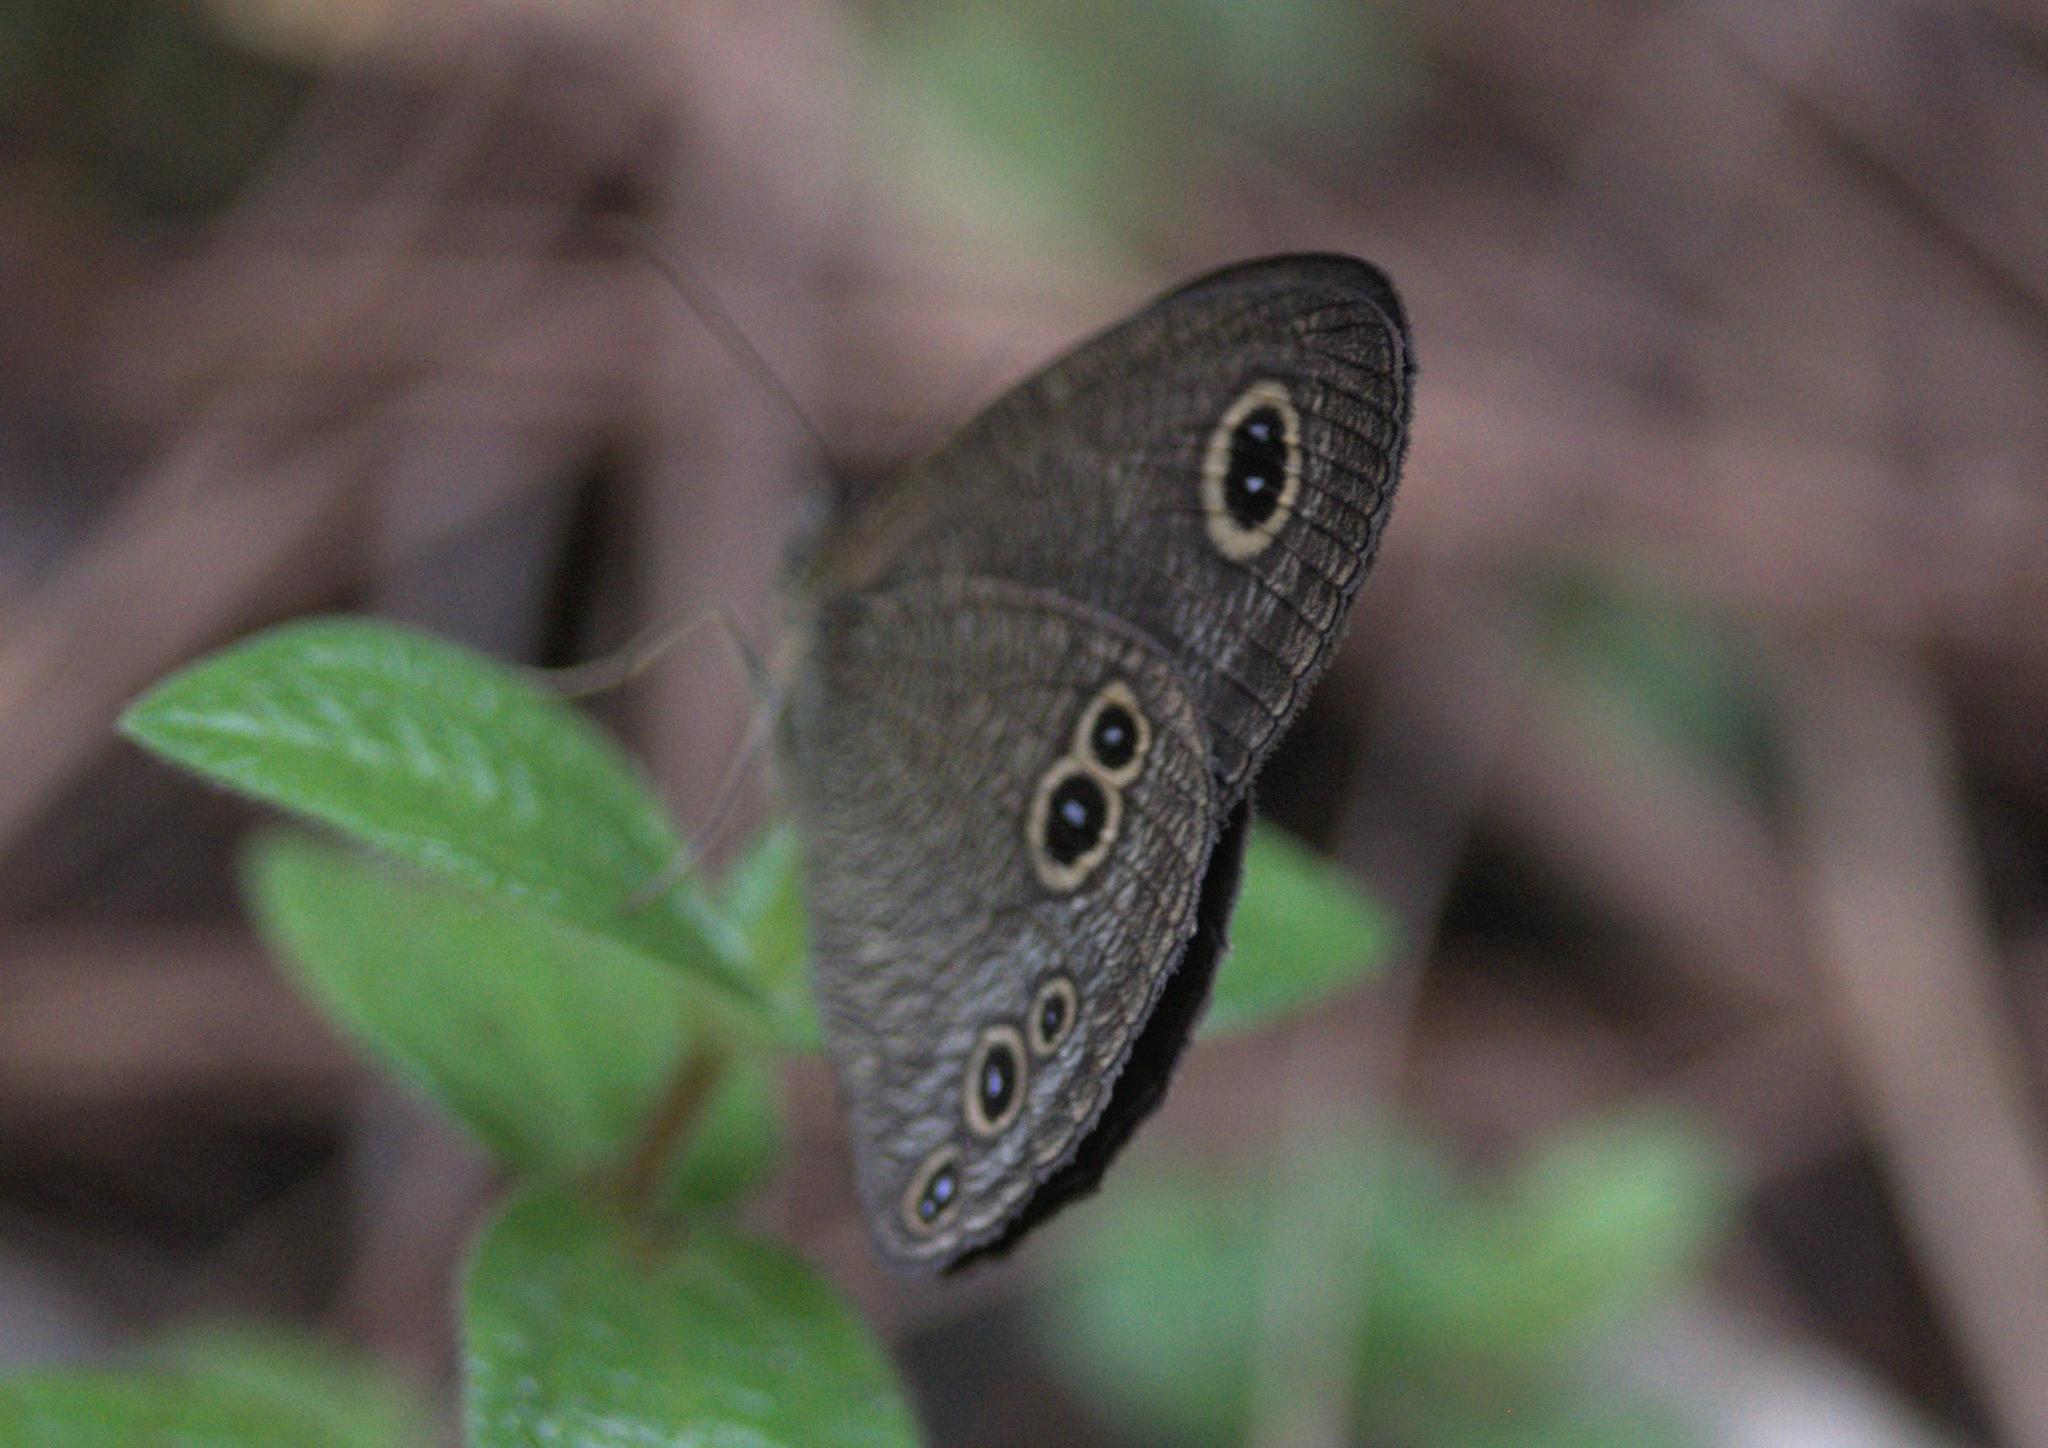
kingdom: Animalia
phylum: Arthropoda
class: Insecta
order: Lepidoptera
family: Nymphalidae
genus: Ypthima
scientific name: Ypthima nikaea
